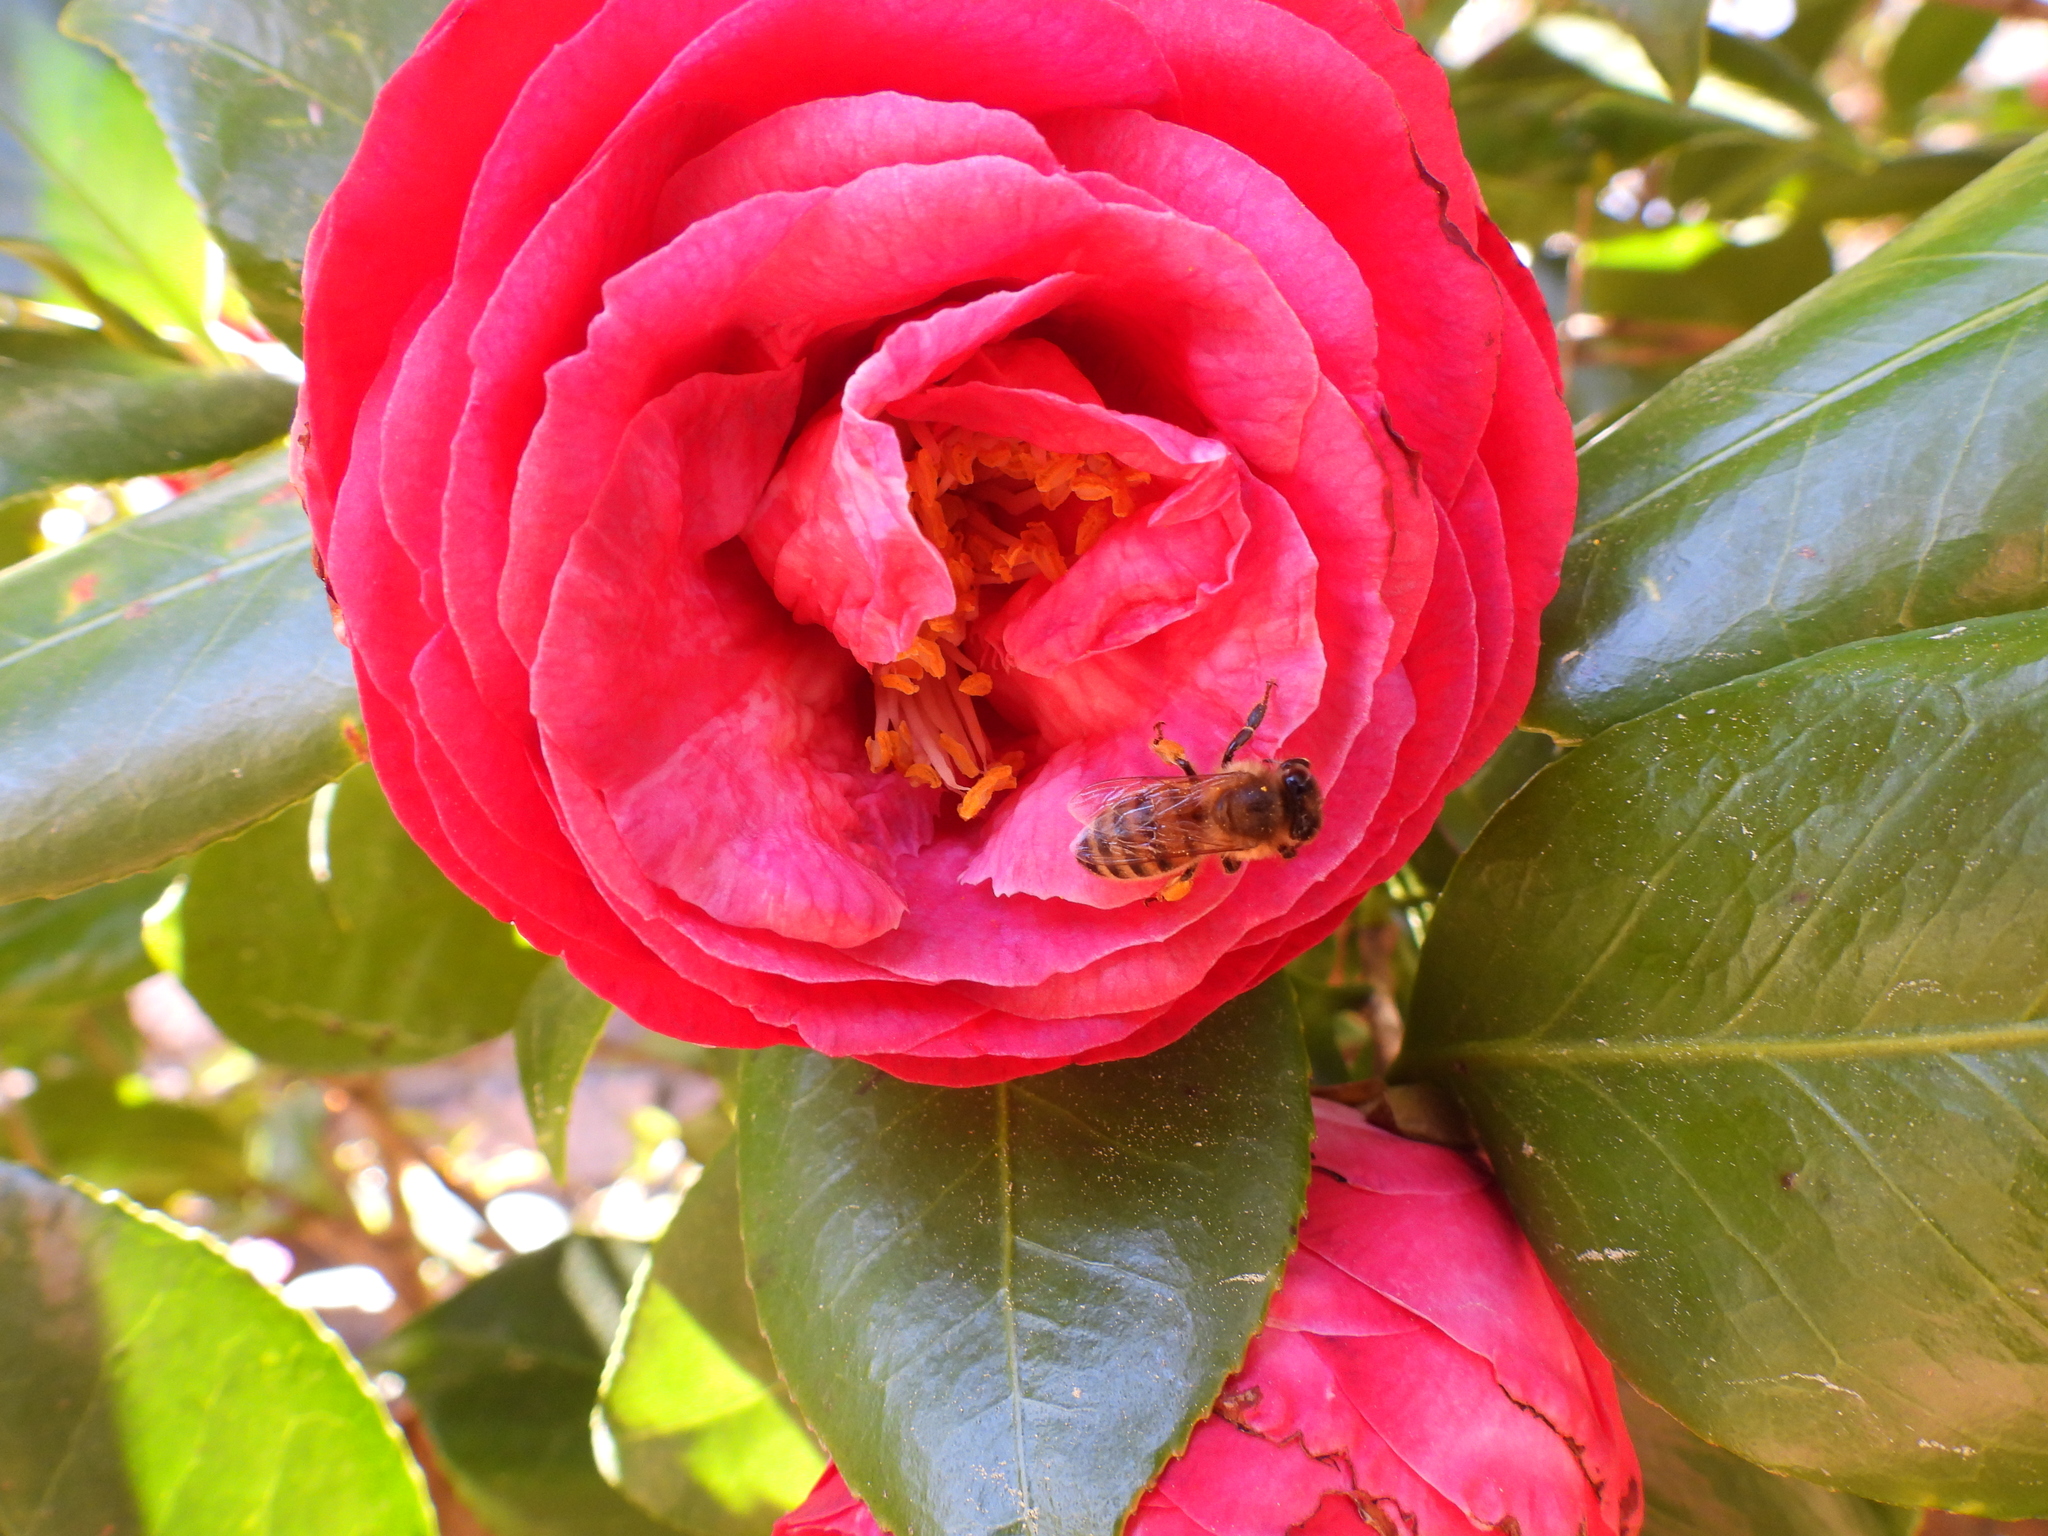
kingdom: Animalia
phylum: Arthropoda
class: Insecta
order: Hymenoptera
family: Apidae
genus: Apis
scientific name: Apis mellifera
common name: Honey bee
